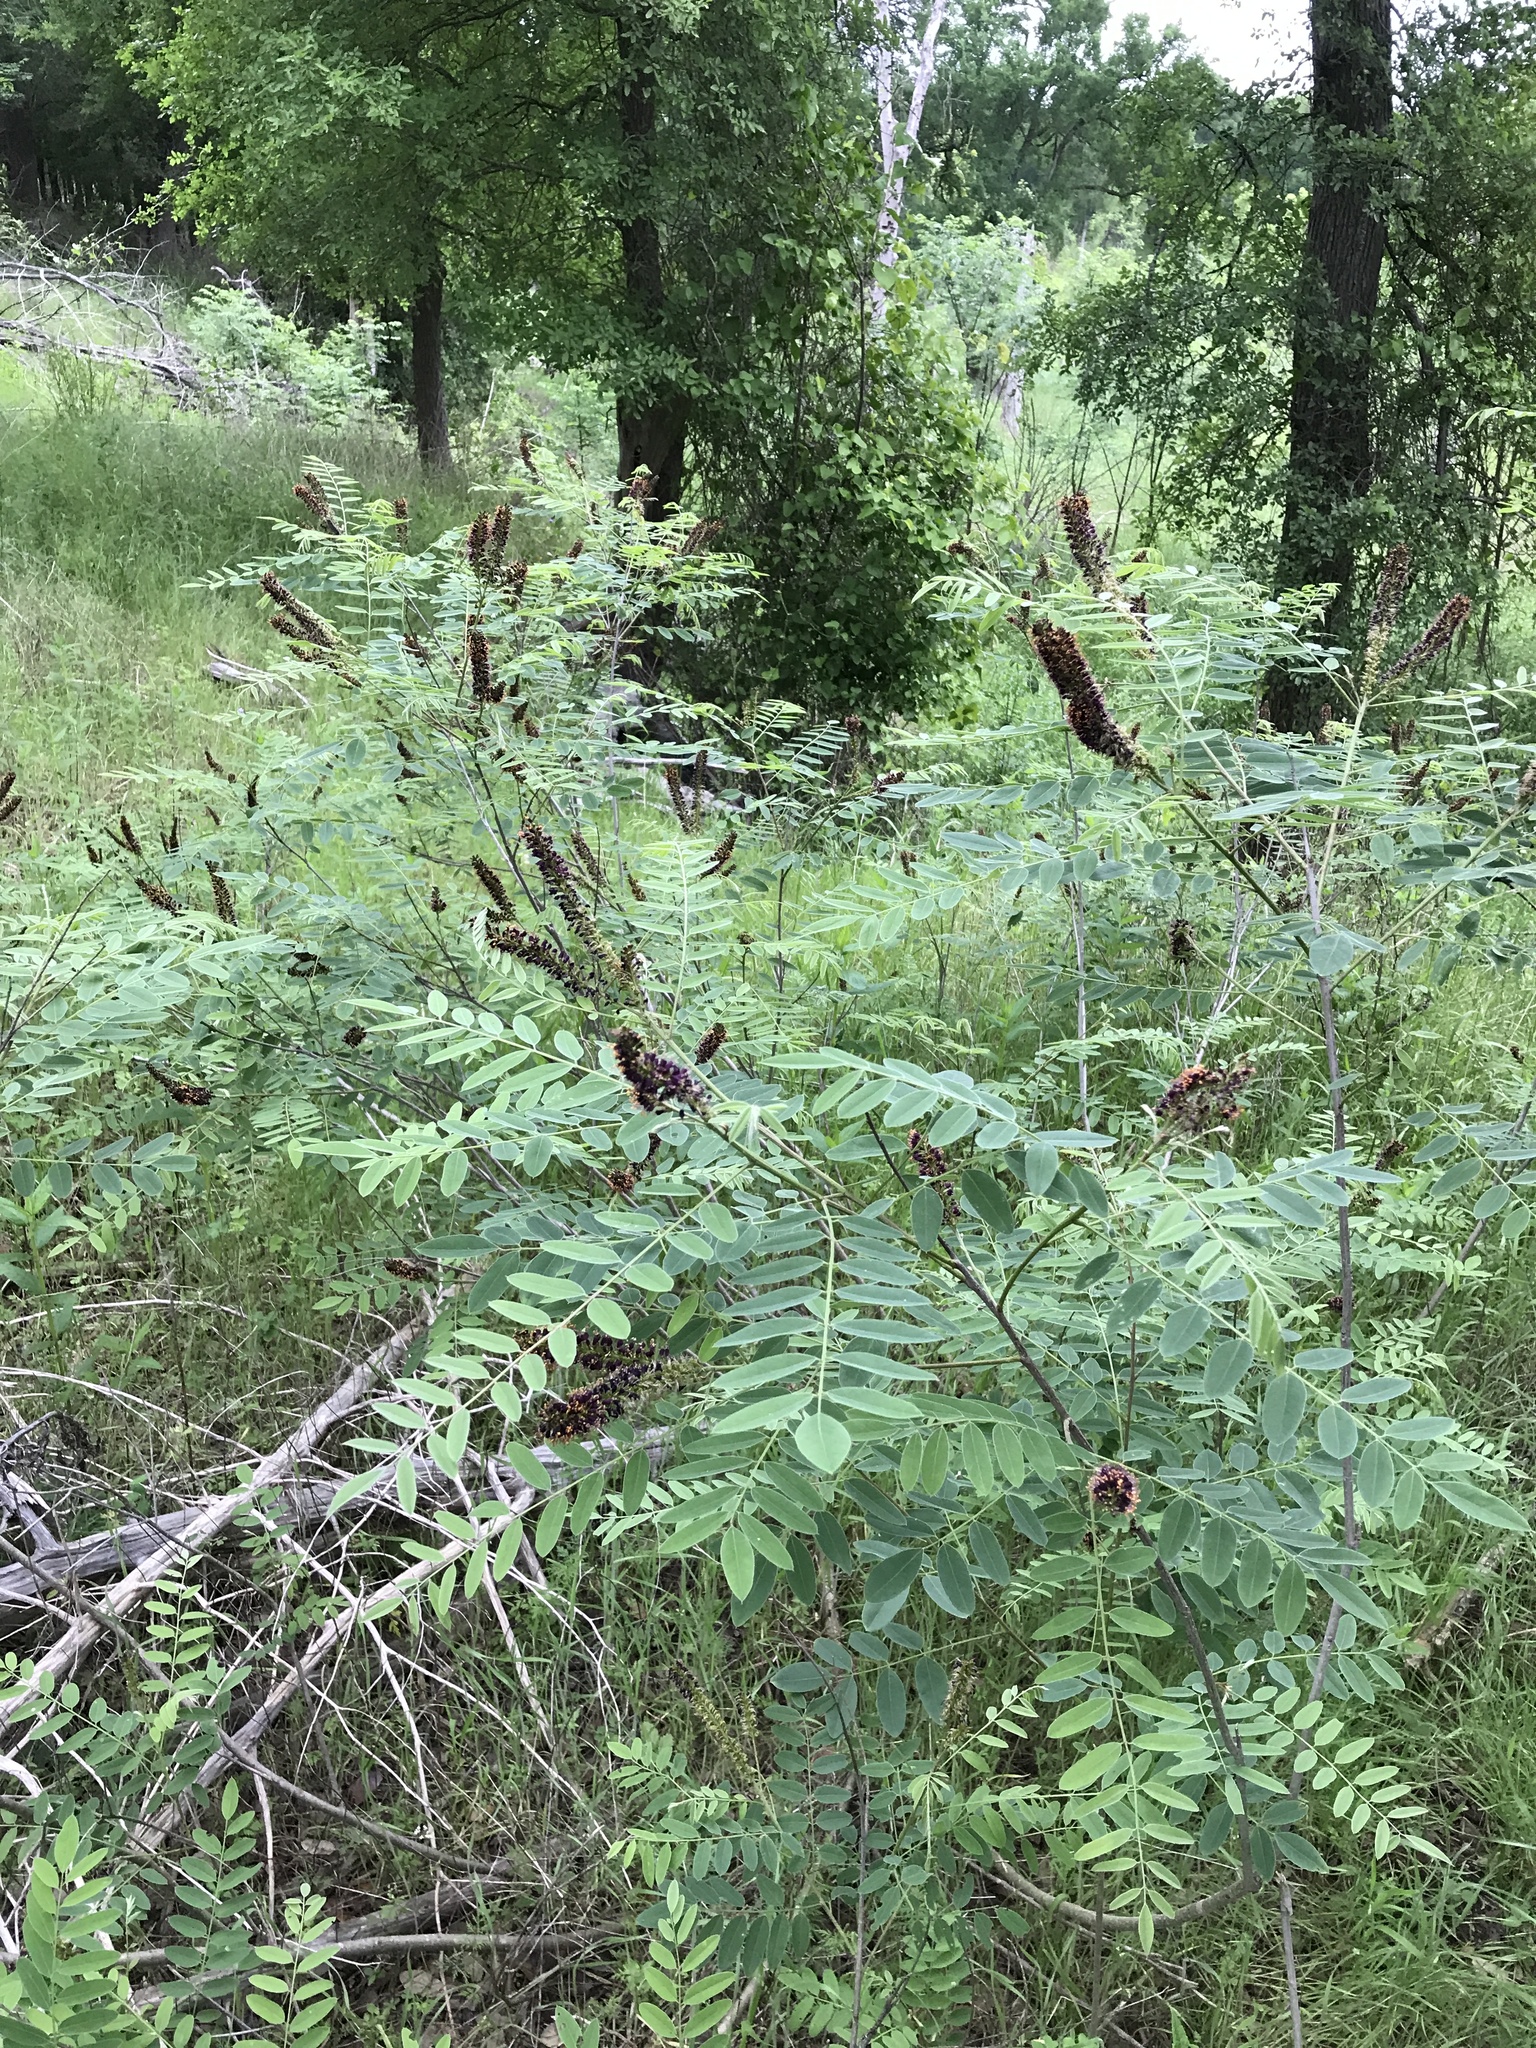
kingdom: Plantae
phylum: Tracheophyta
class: Magnoliopsida
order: Fabales
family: Fabaceae
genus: Amorpha
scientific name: Amorpha fruticosa
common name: False indigo
